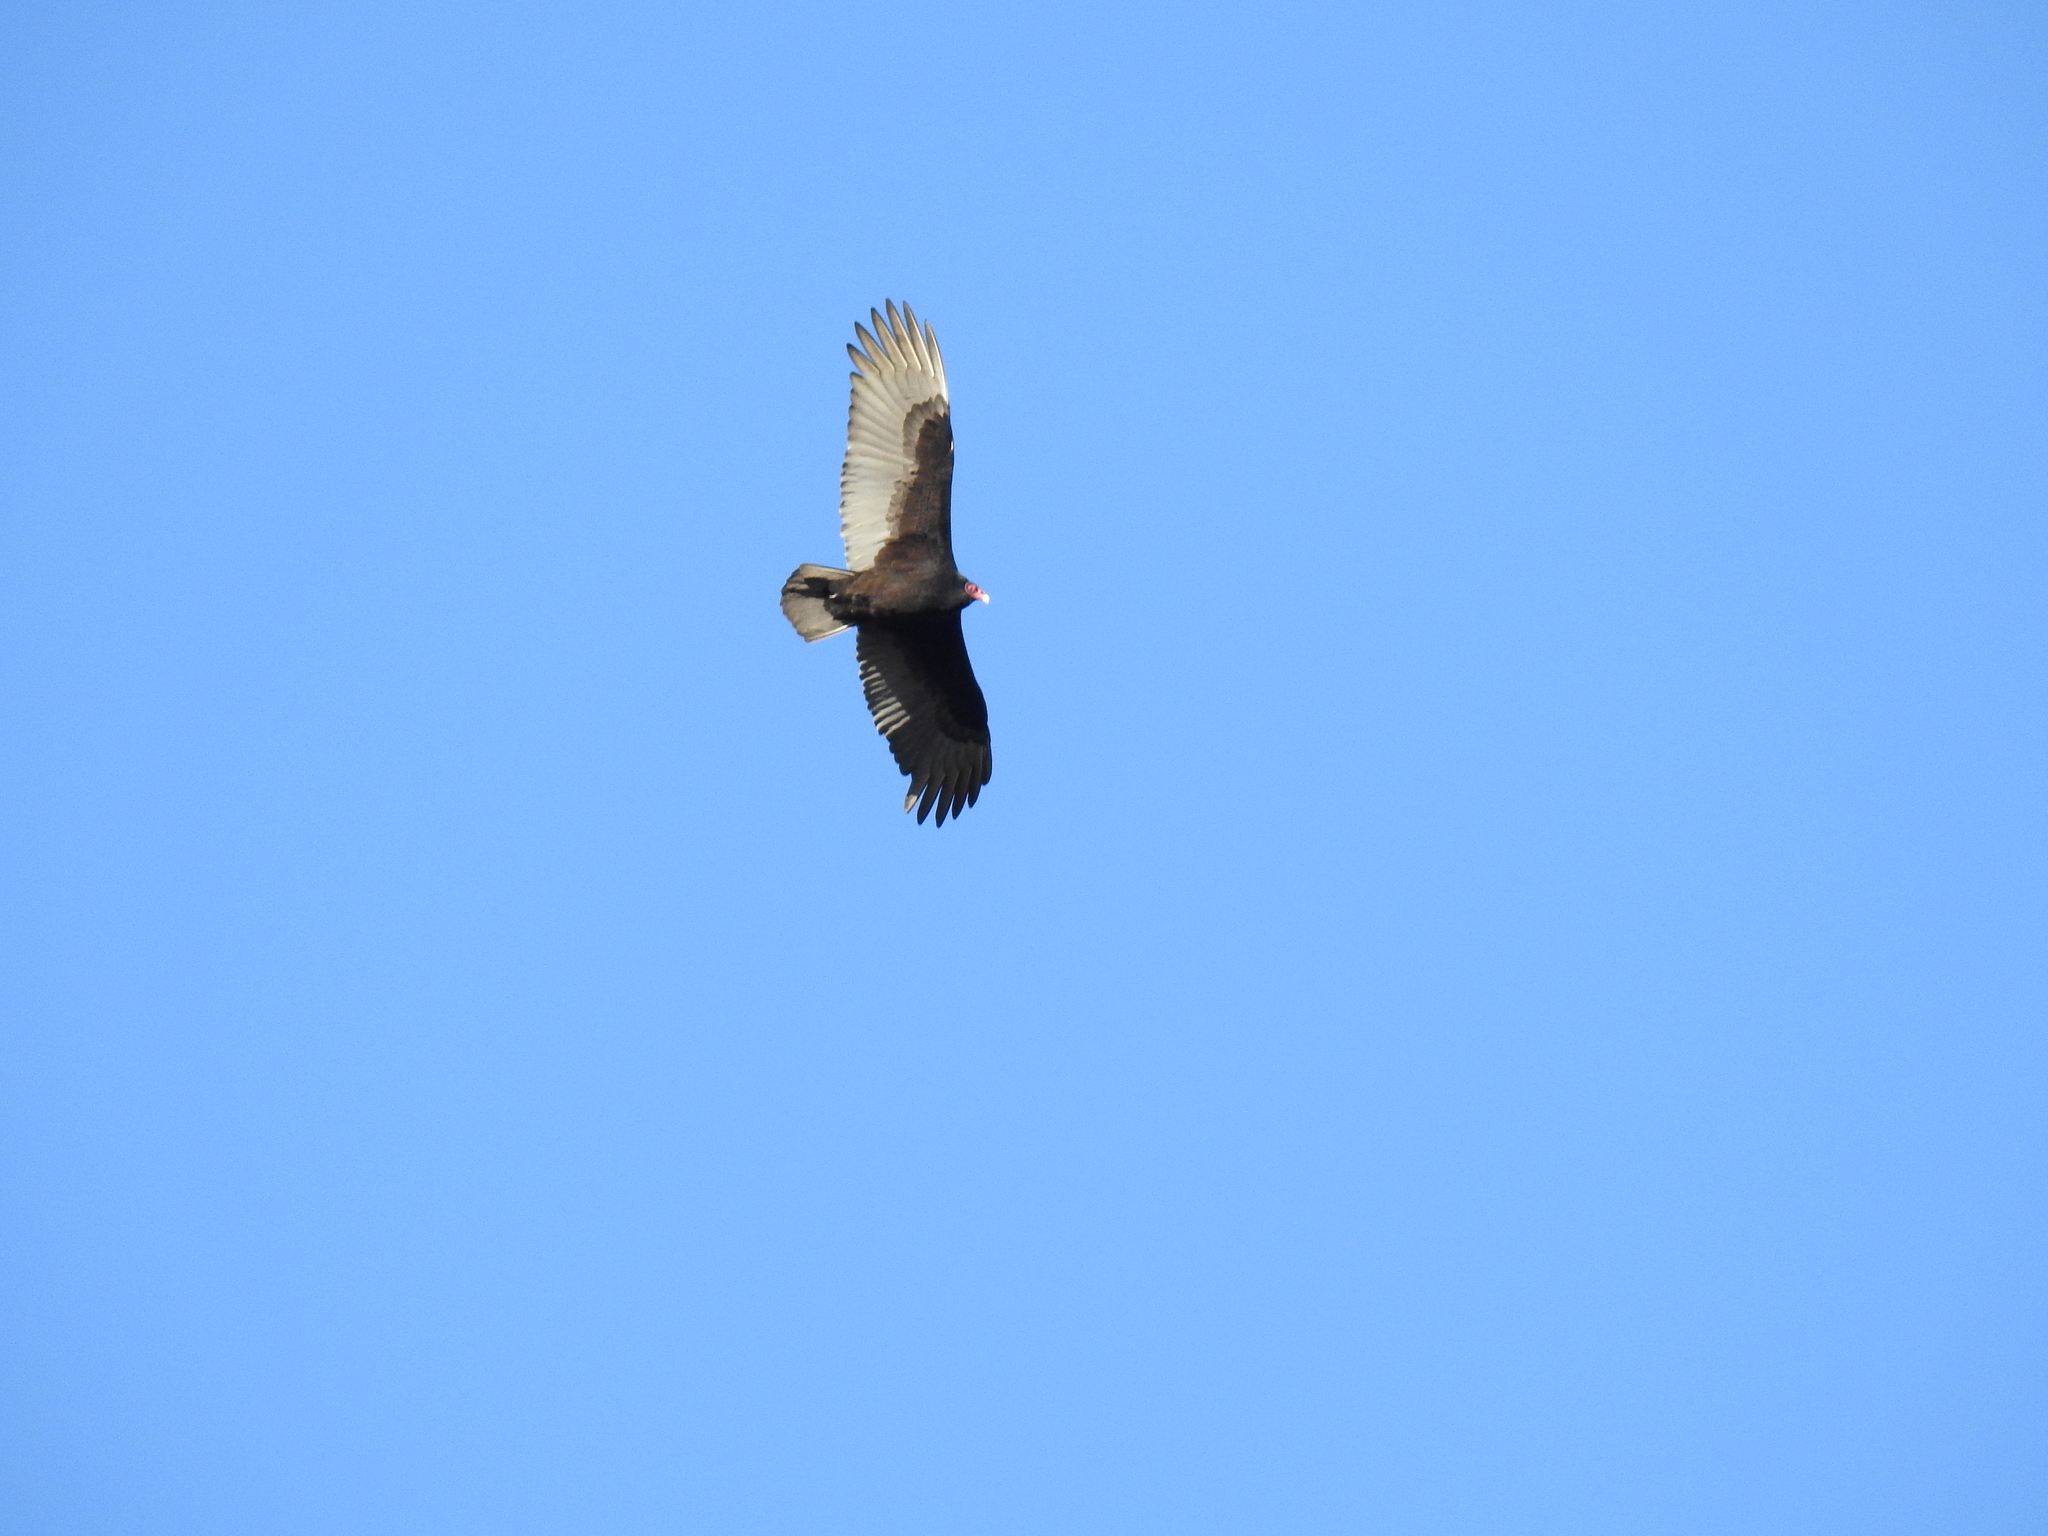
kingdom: Animalia
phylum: Chordata
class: Aves
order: Accipitriformes
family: Cathartidae
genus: Cathartes
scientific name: Cathartes aura
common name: Turkey vulture
